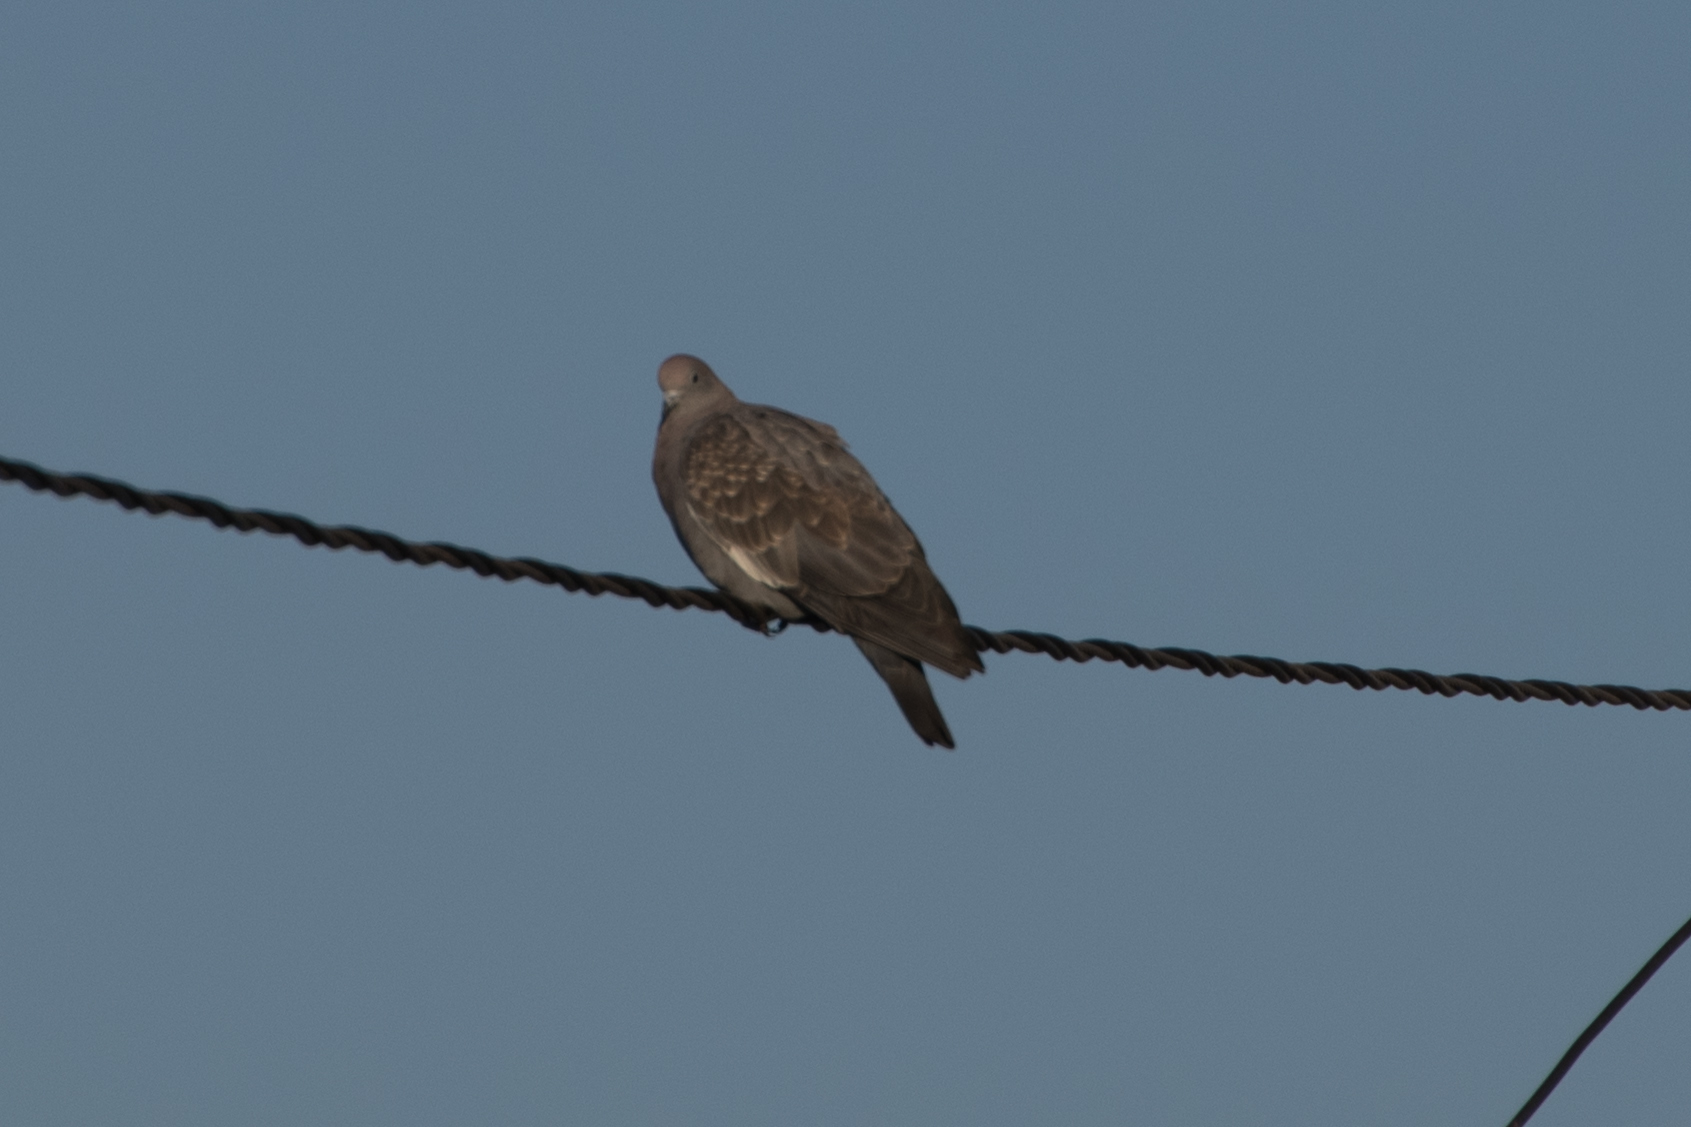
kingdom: Animalia
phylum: Chordata
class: Aves
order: Columbiformes
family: Columbidae
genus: Patagioenas
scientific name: Patagioenas maculosa
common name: Spot-winged pigeon
